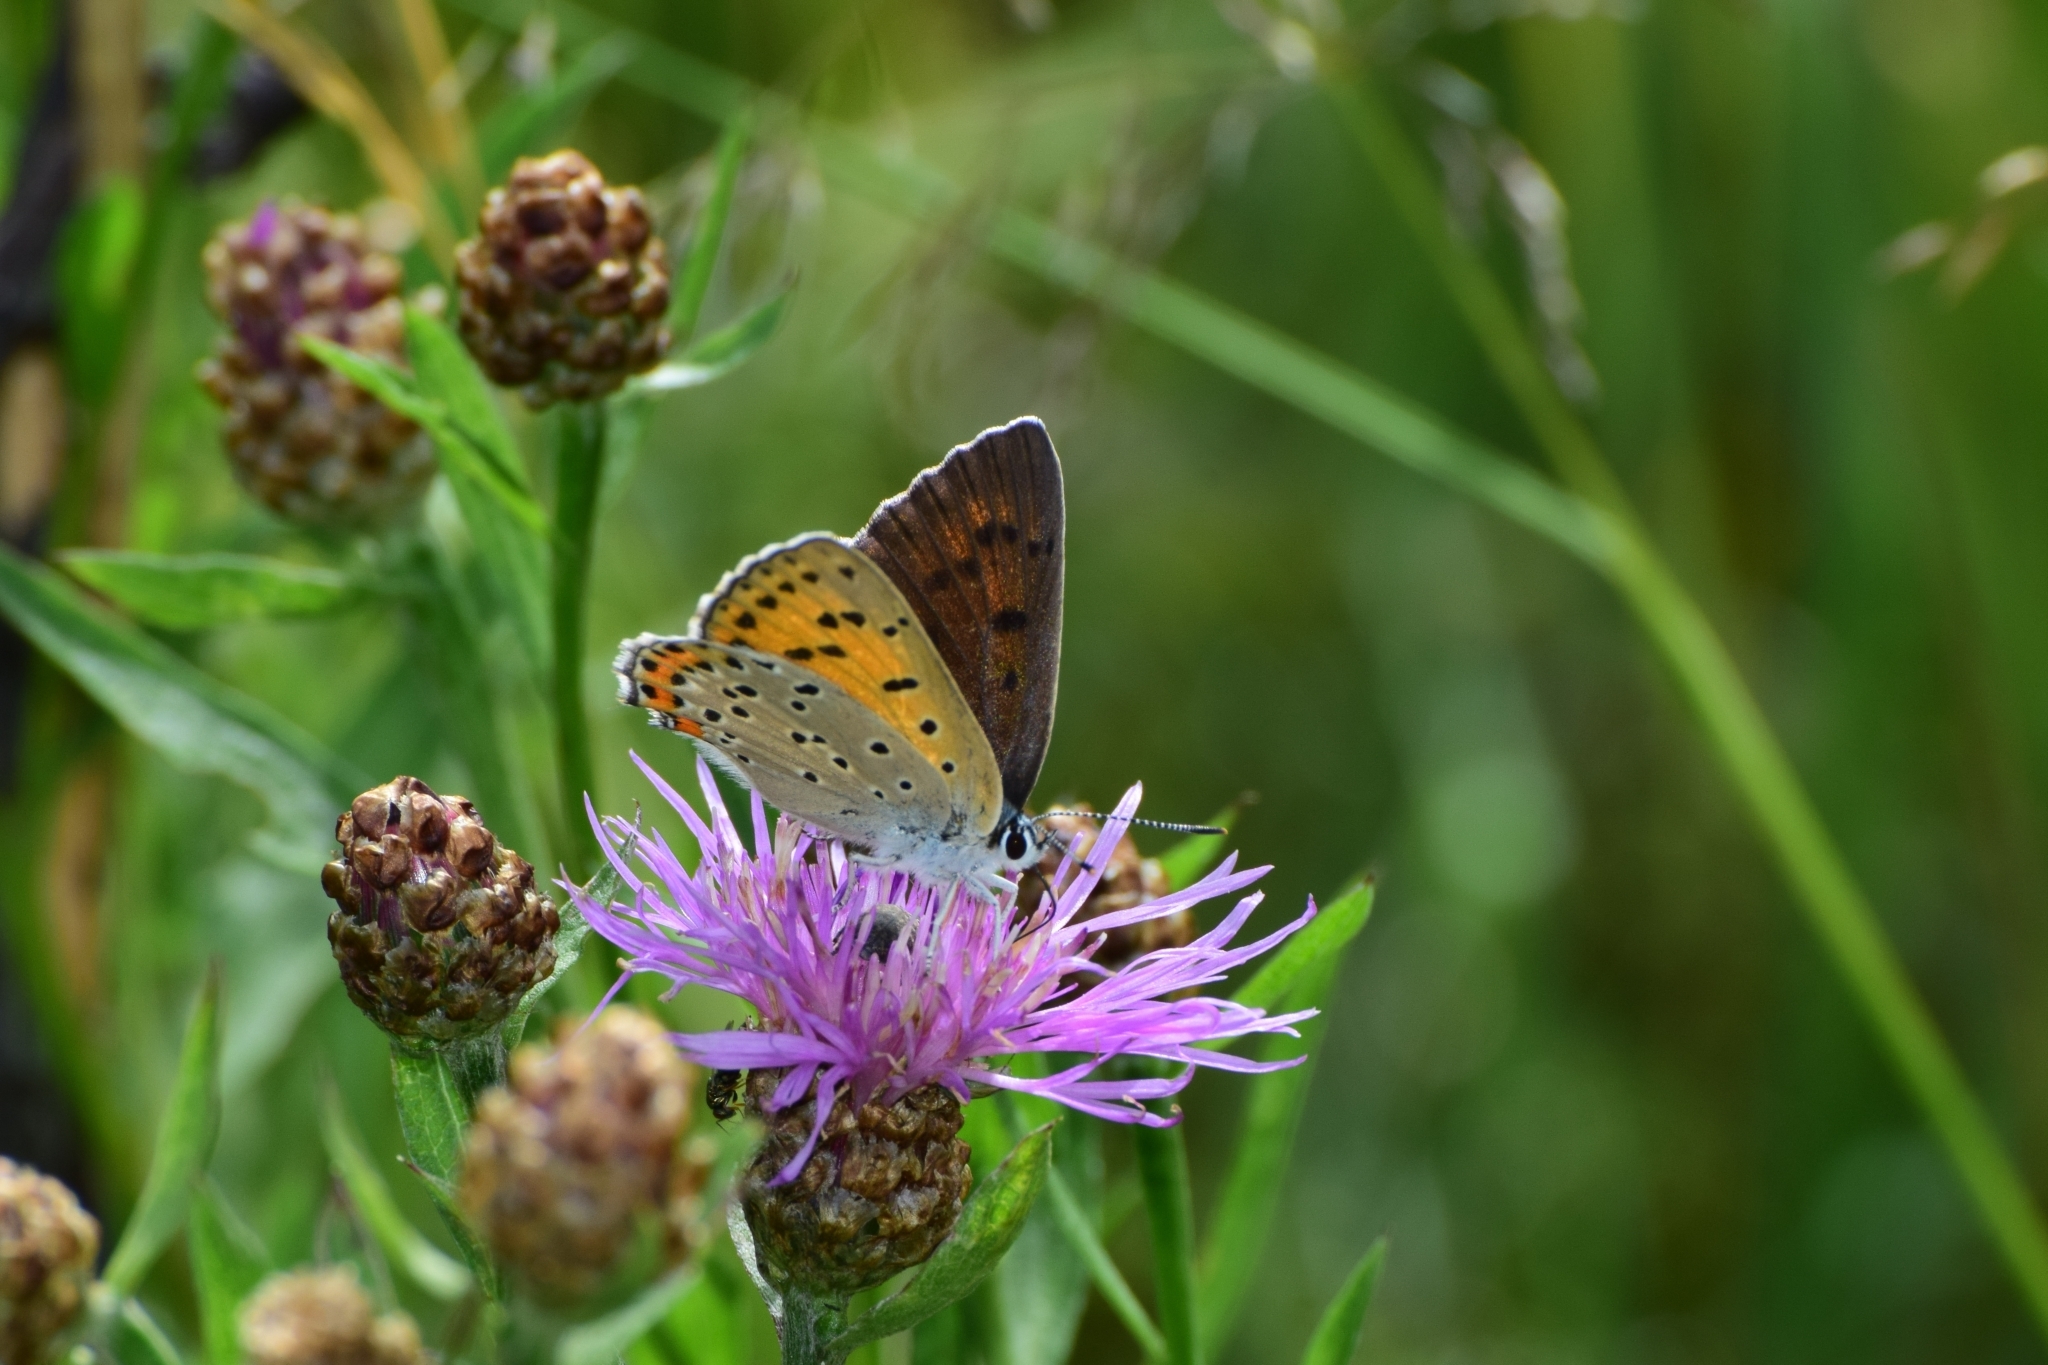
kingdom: Animalia
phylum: Arthropoda
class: Insecta
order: Lepidoptera
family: Lycaenidae
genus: Lycaena
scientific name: Lycaena alciphron
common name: Purple-shot copper
